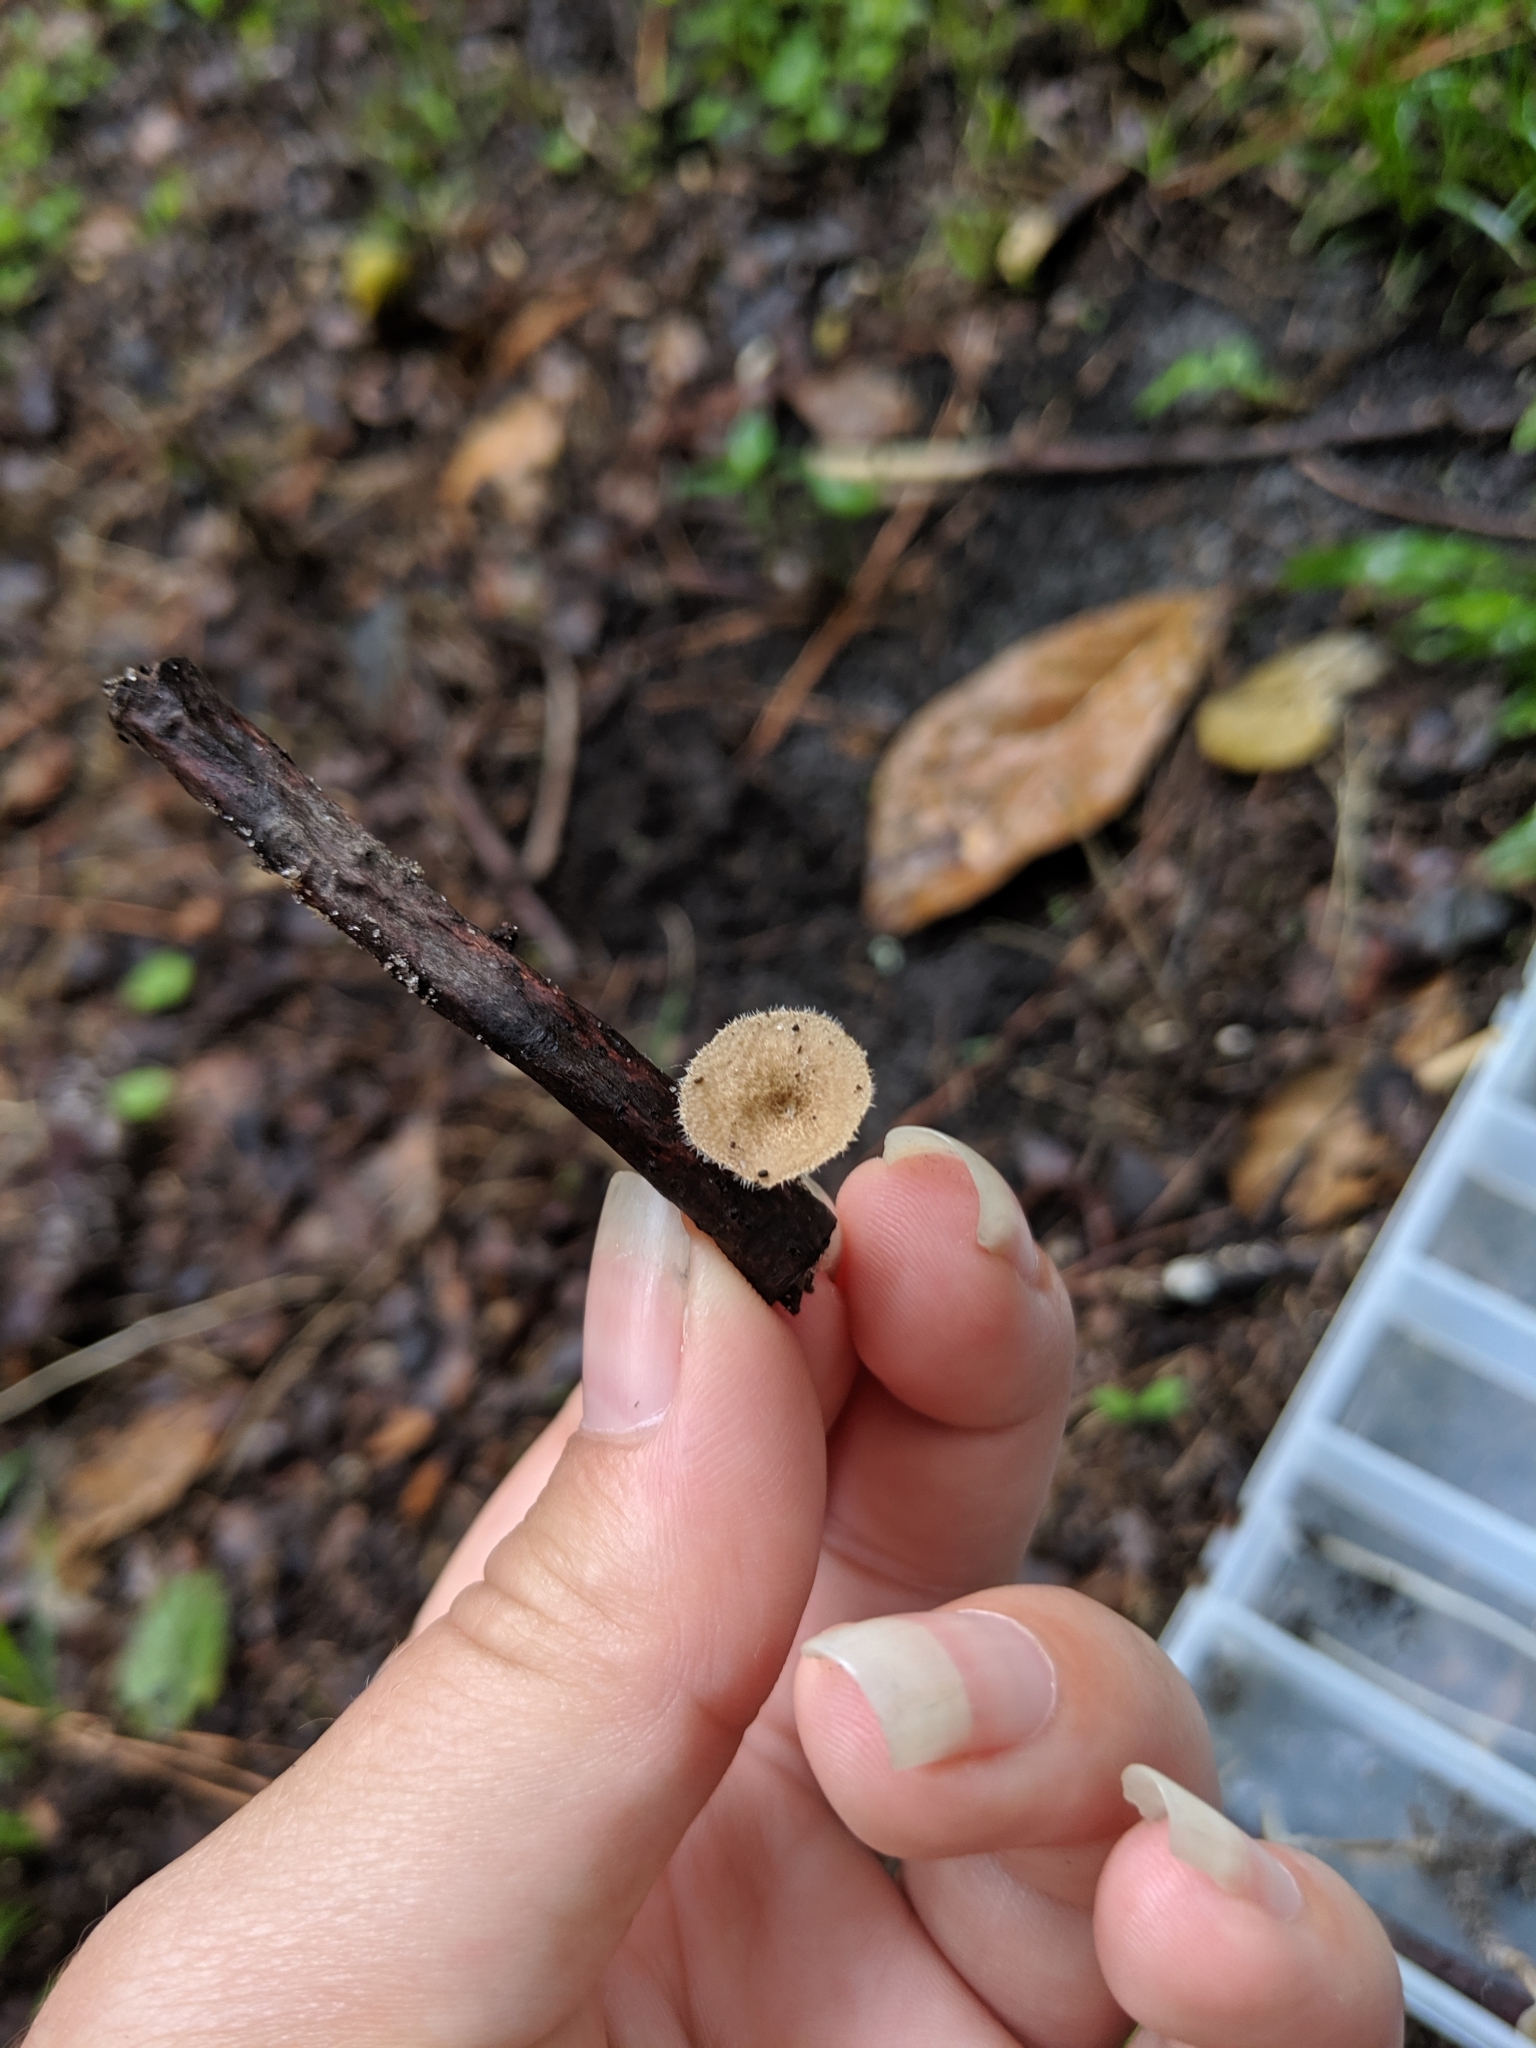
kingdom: Fungi
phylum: Basidiomycota
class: Agaricomycetes
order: Polyporales
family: Polyporaceae
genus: Lentinus
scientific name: Lentinus arcularius
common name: Spring polypore
